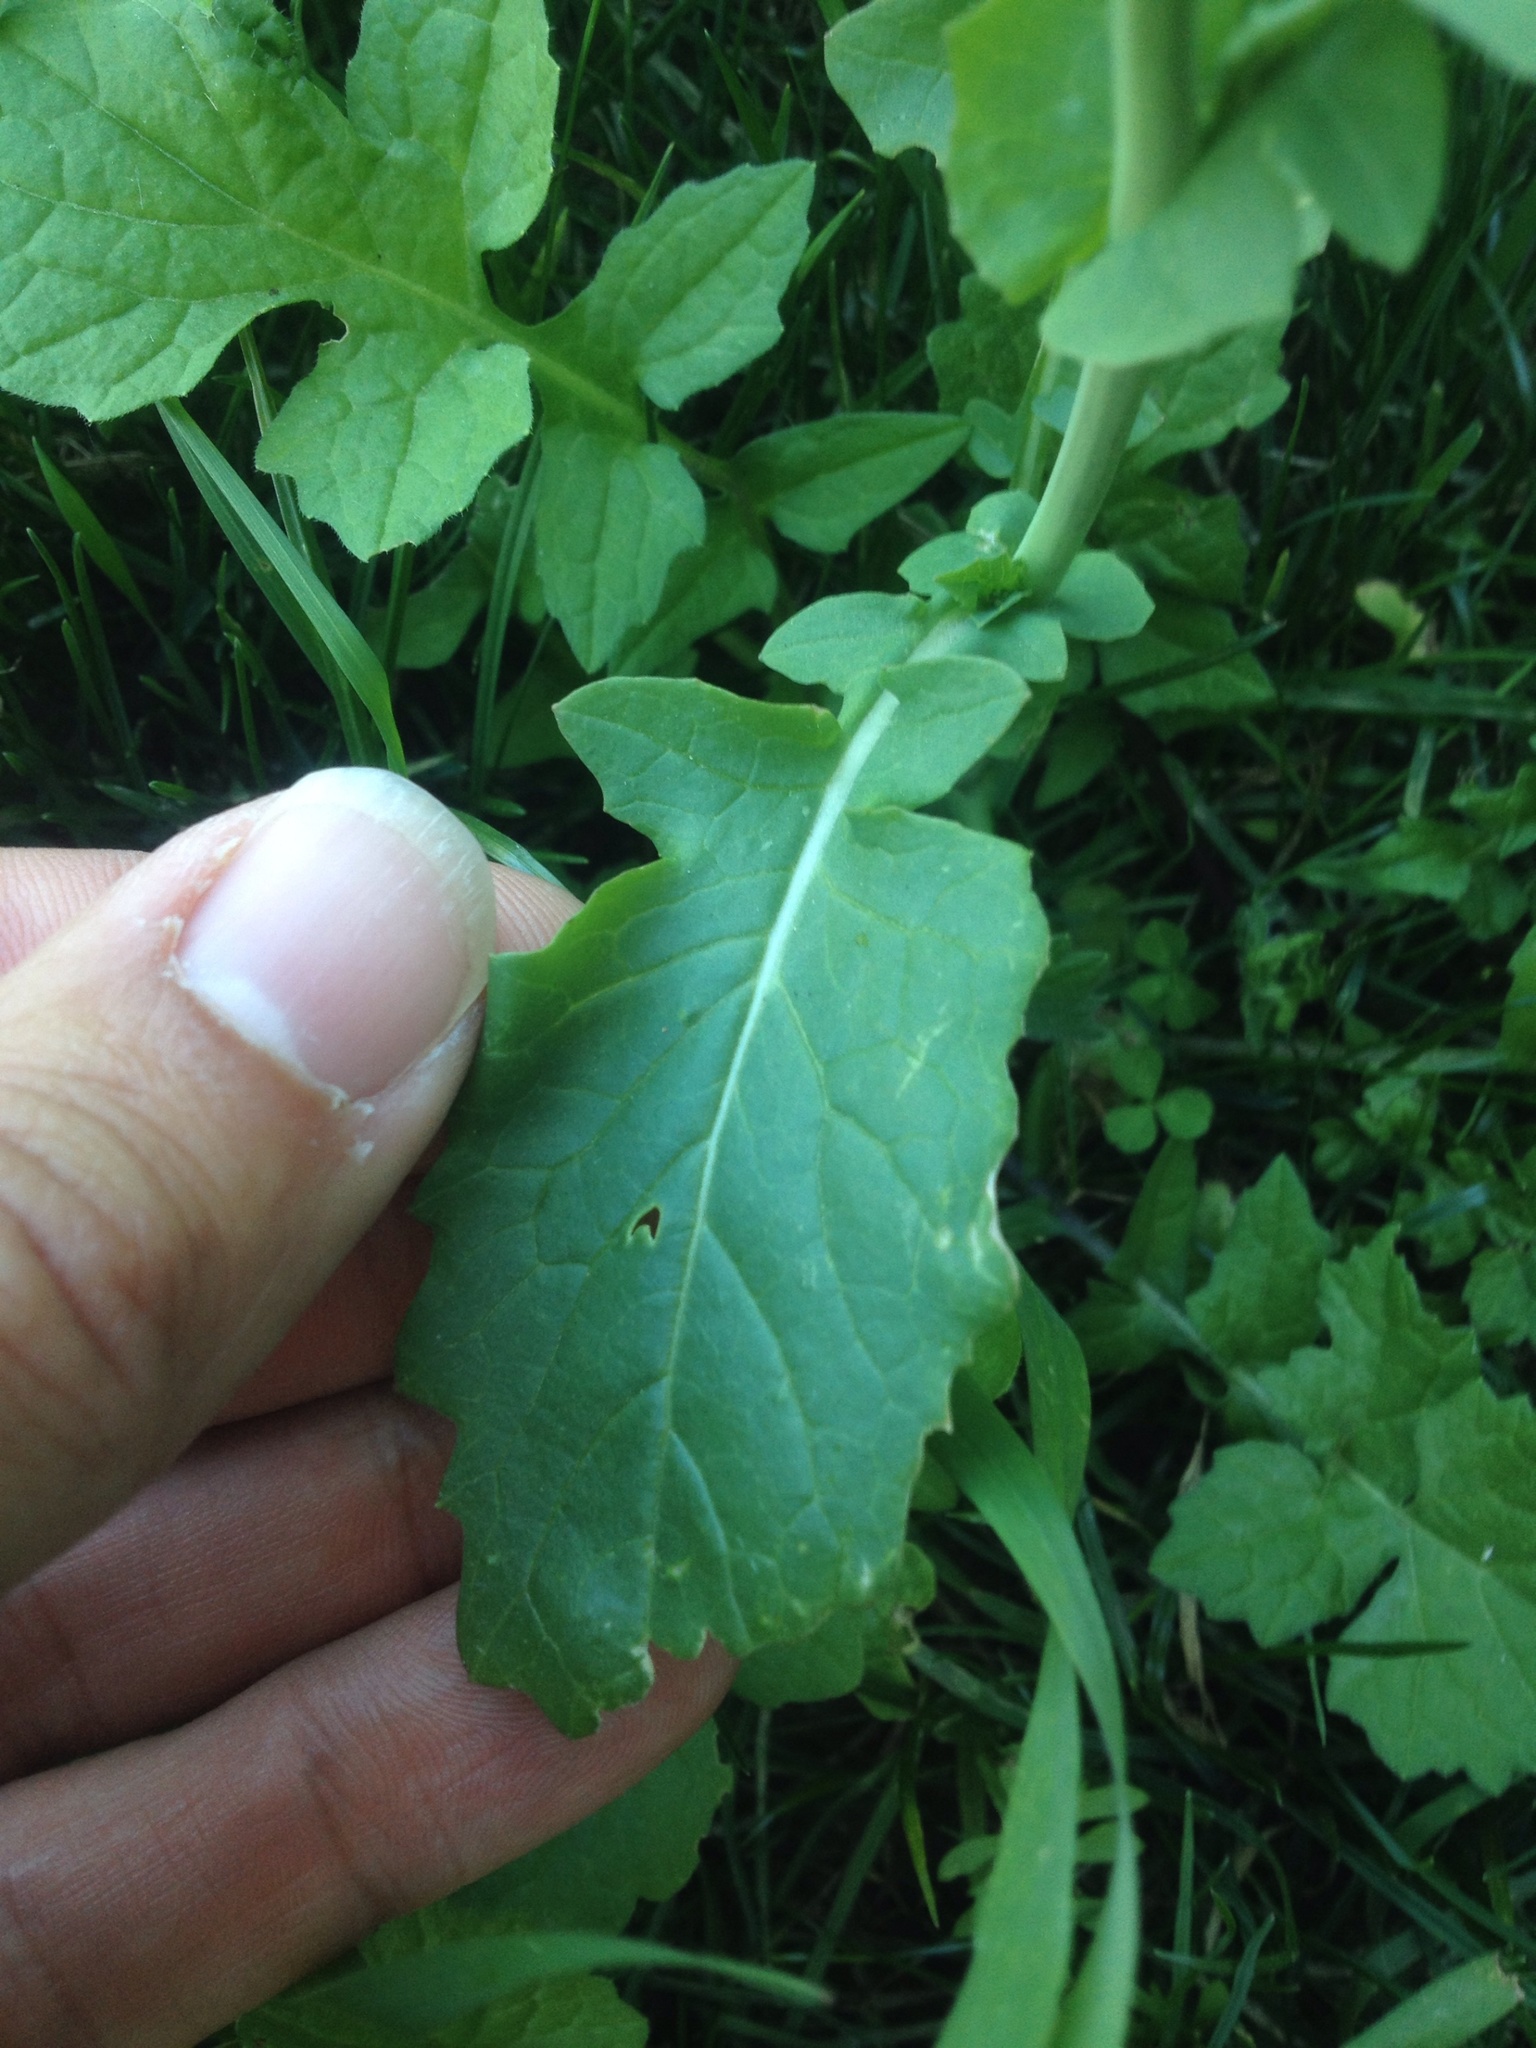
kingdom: Plantae
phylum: Tracheophyta
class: Magnoliopsida
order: Brassicales
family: Brassicaceae
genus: Brassica
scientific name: Brassica rapa
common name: Field mustard
